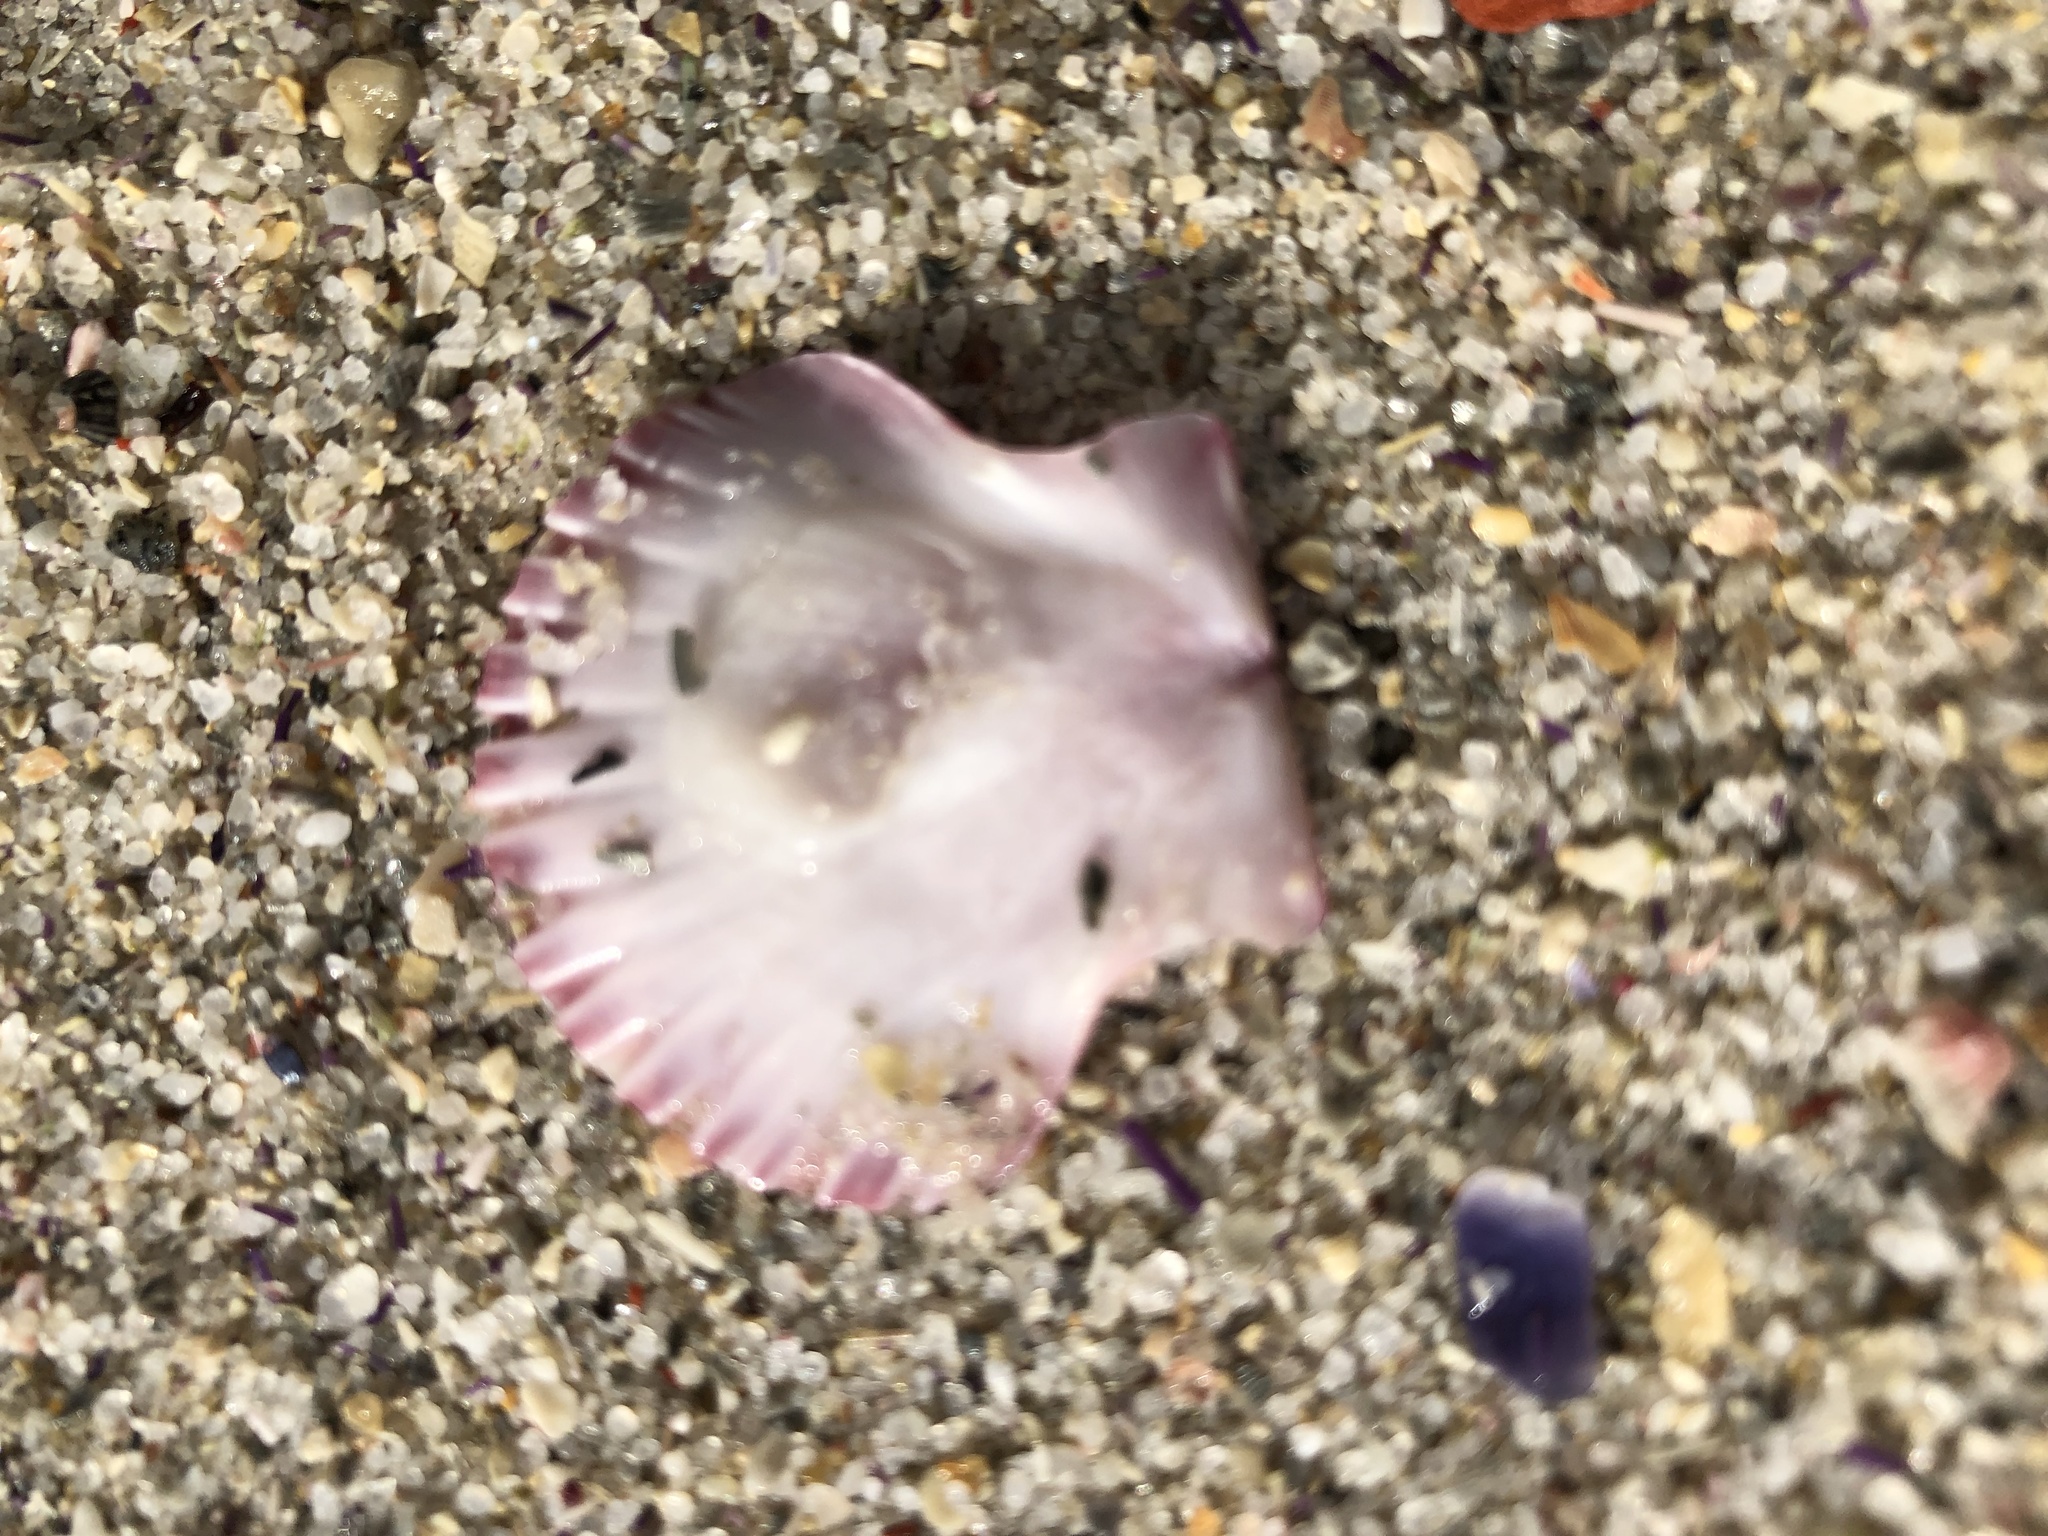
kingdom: Animalia
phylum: Mollusca
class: Bivalvia
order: Pectinida
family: Pectinidae
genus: Pecten
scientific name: Pecten sulcicostatus
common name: South african scallop
